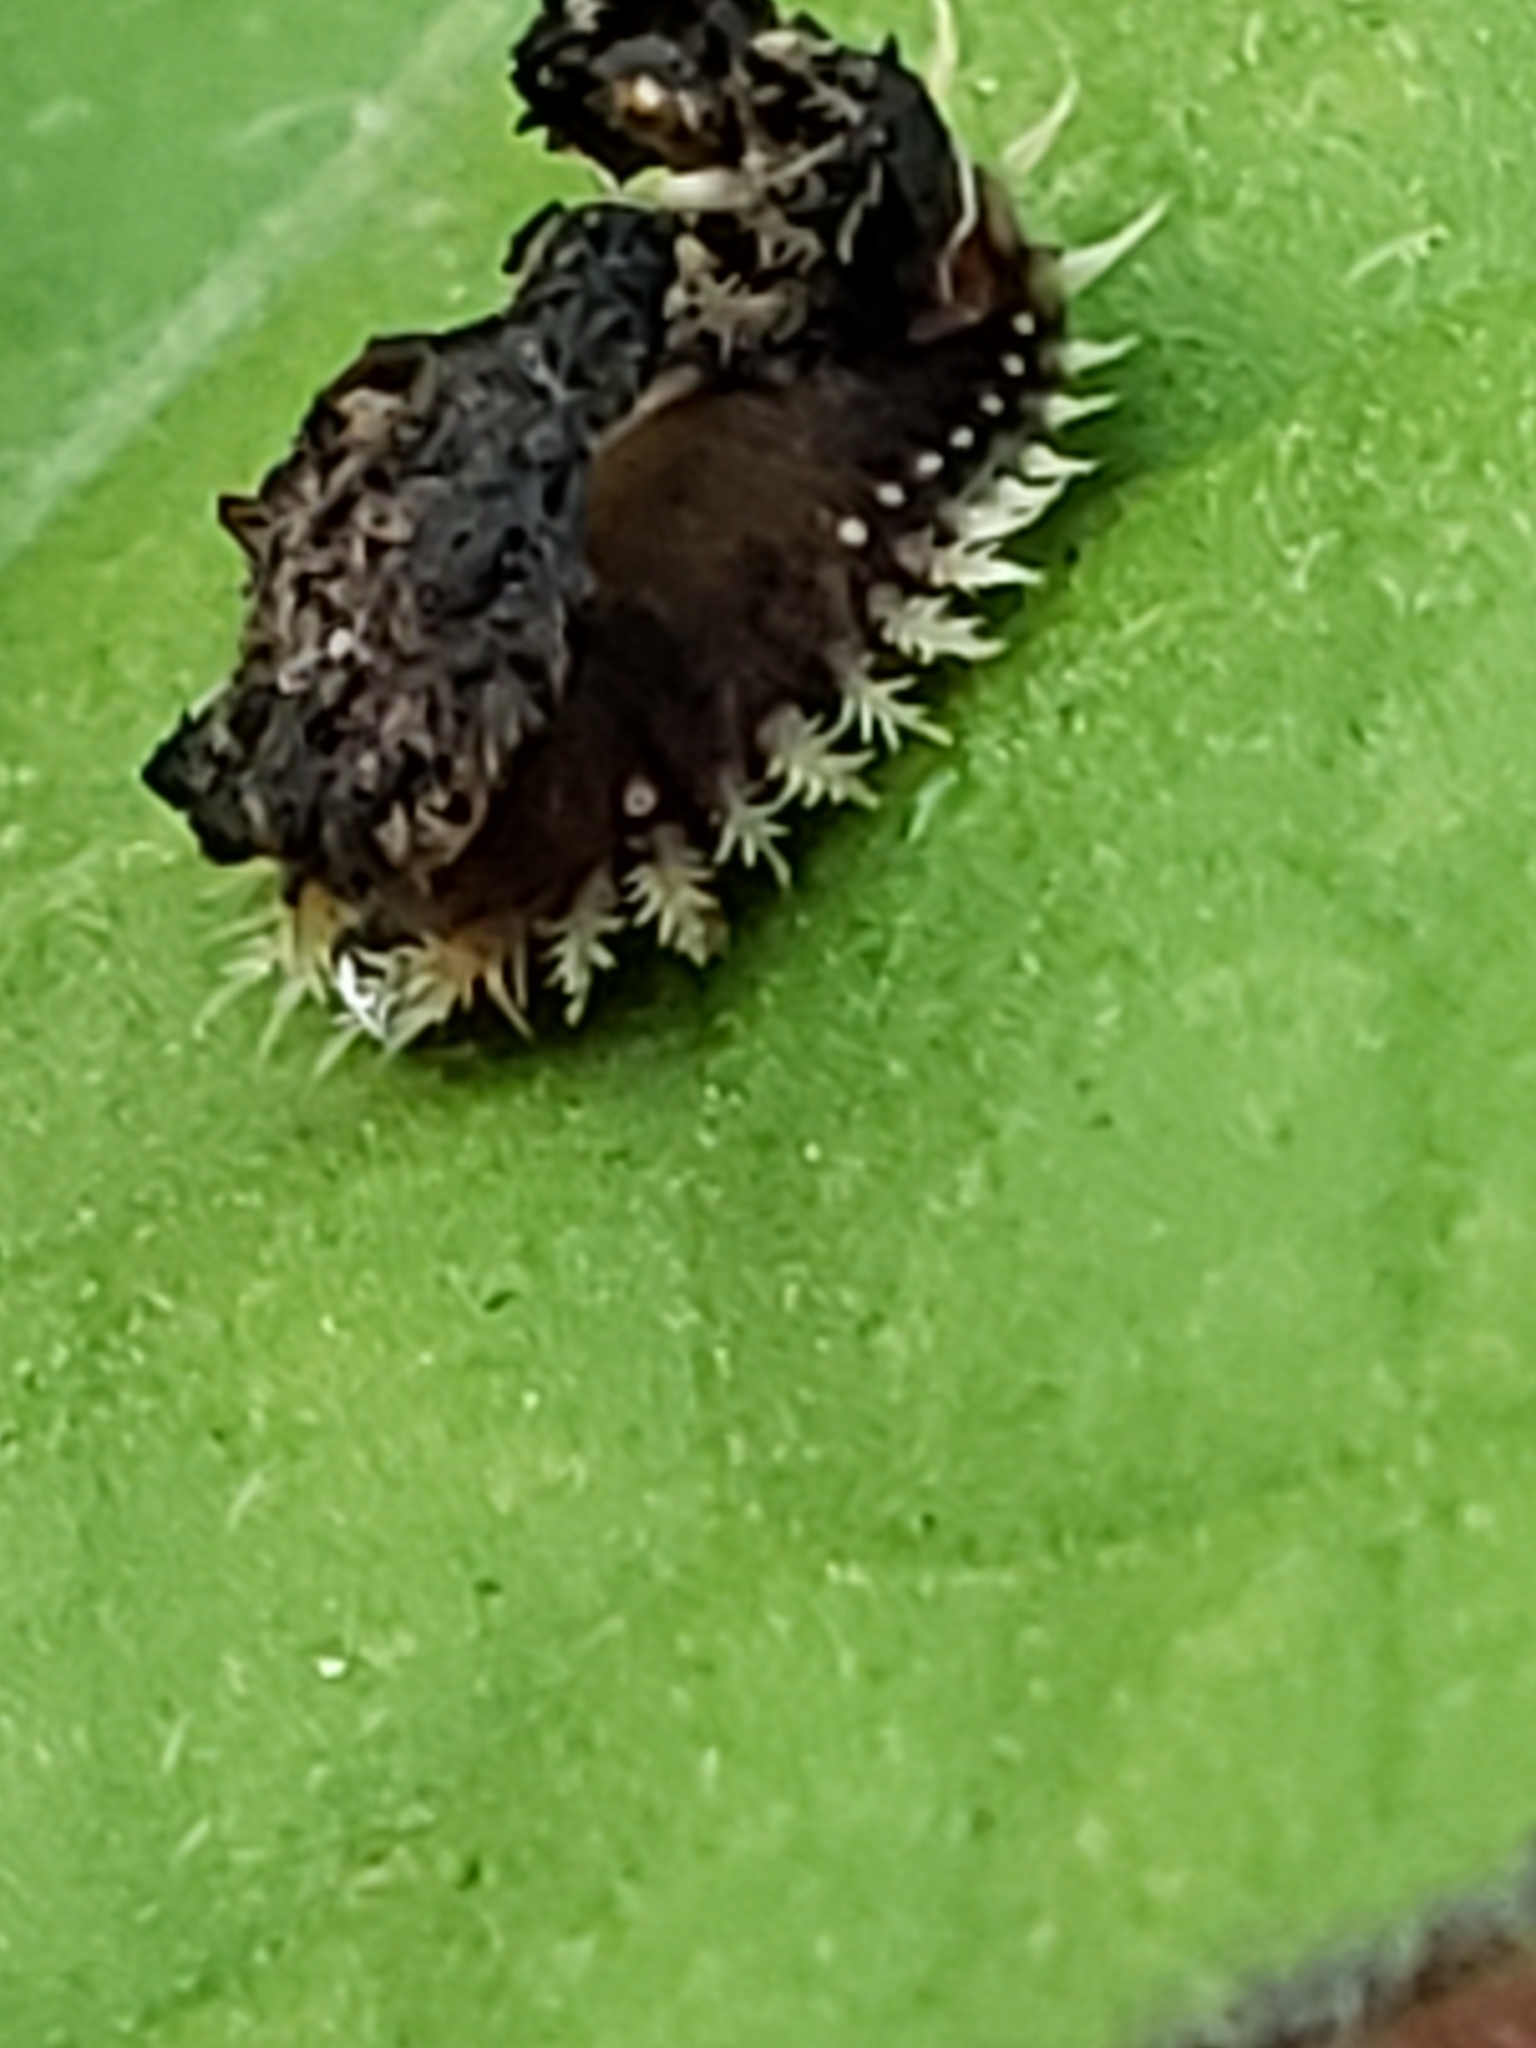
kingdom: Animalia
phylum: Arthropoda
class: Insecta
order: Coleoptera
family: Chrysomelidae
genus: Charidotella
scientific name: Charidotella sexpunctata
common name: Golden tortoise beetle
